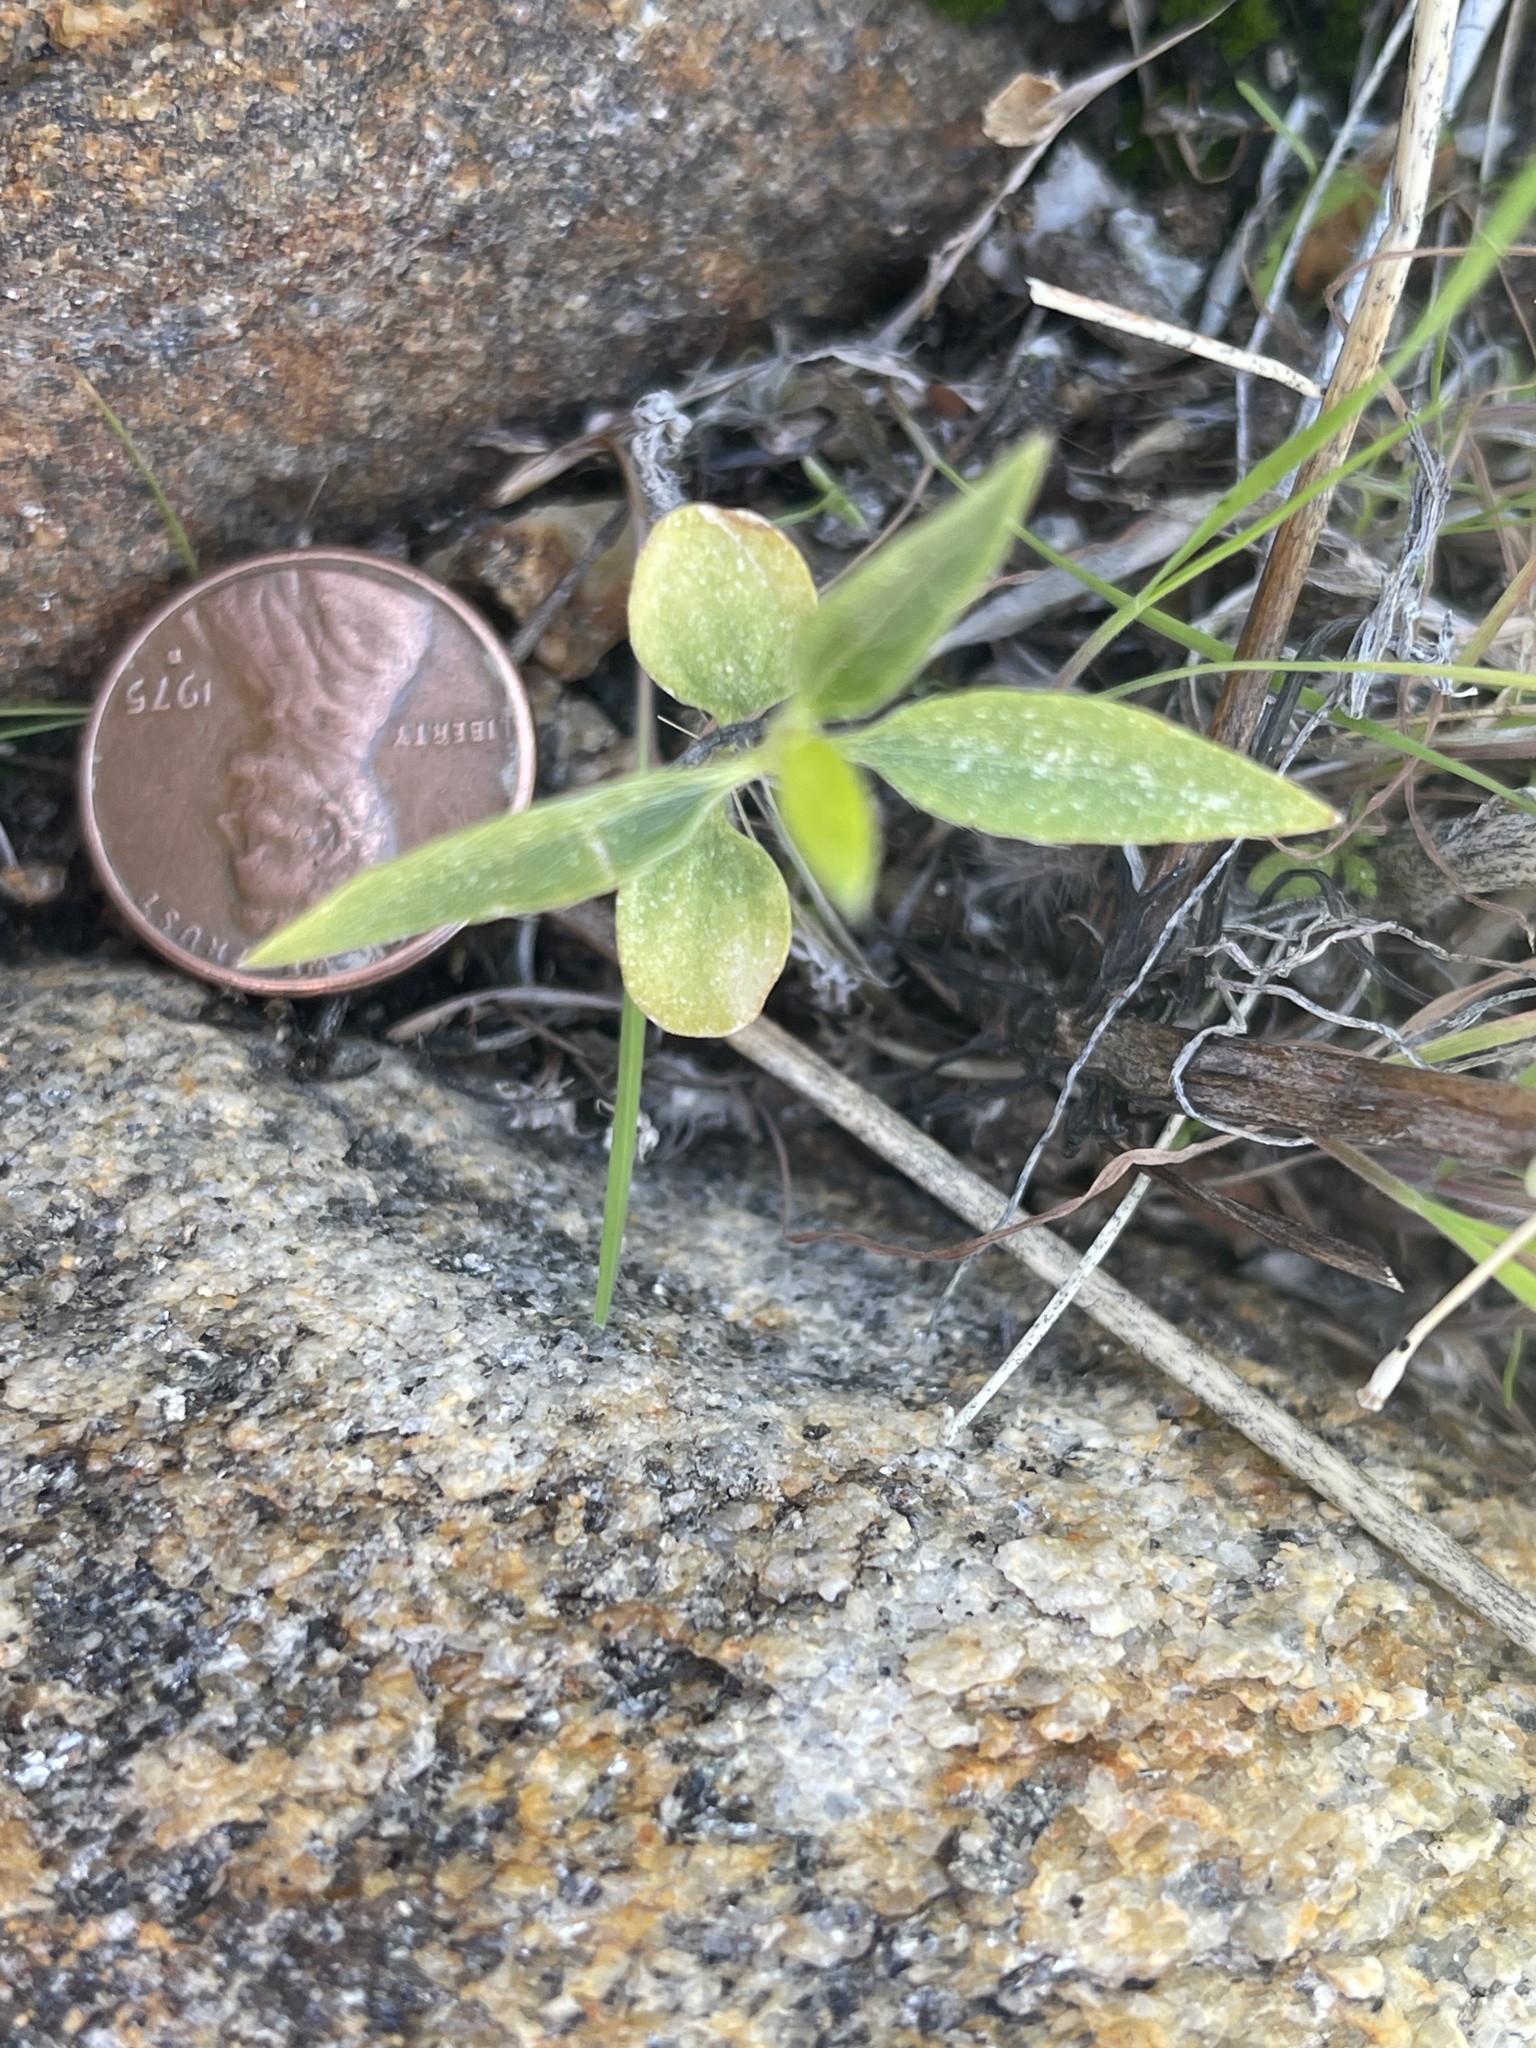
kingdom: Plantae
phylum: Tracheophyta
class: Magnoliopsida
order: Malpighiales
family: Euphorbiaceae
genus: Ditaxis
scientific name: Ditaxis lanceolata
